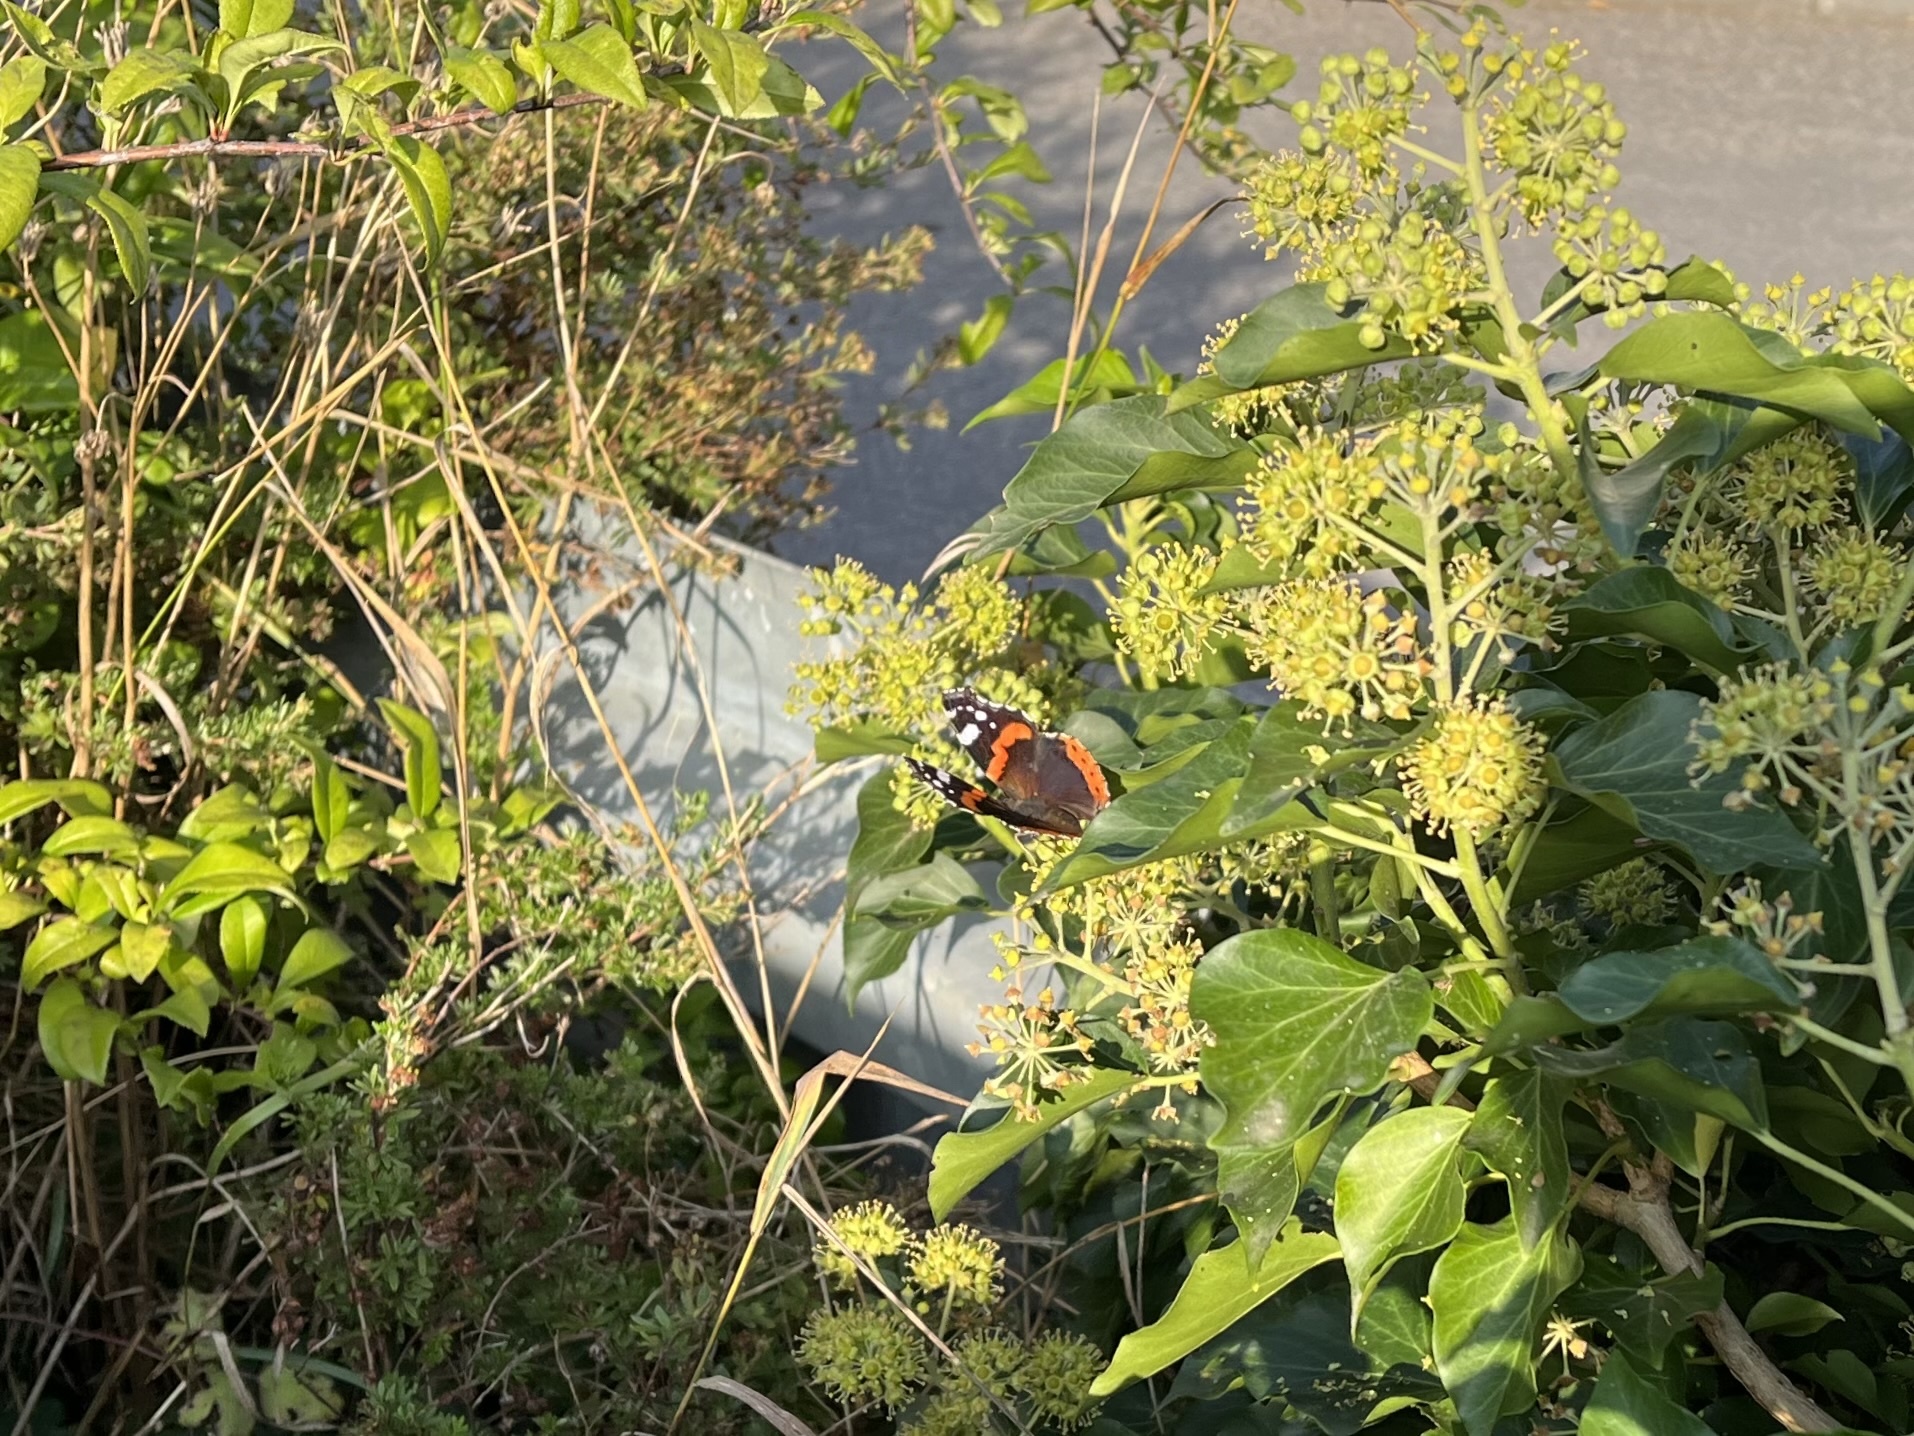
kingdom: Animalia
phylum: Arthropoda
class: Insecta
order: Lepidoptera
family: Nymphalidae
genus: Vanessa
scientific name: Vanessa atalanta
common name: Red admiral
